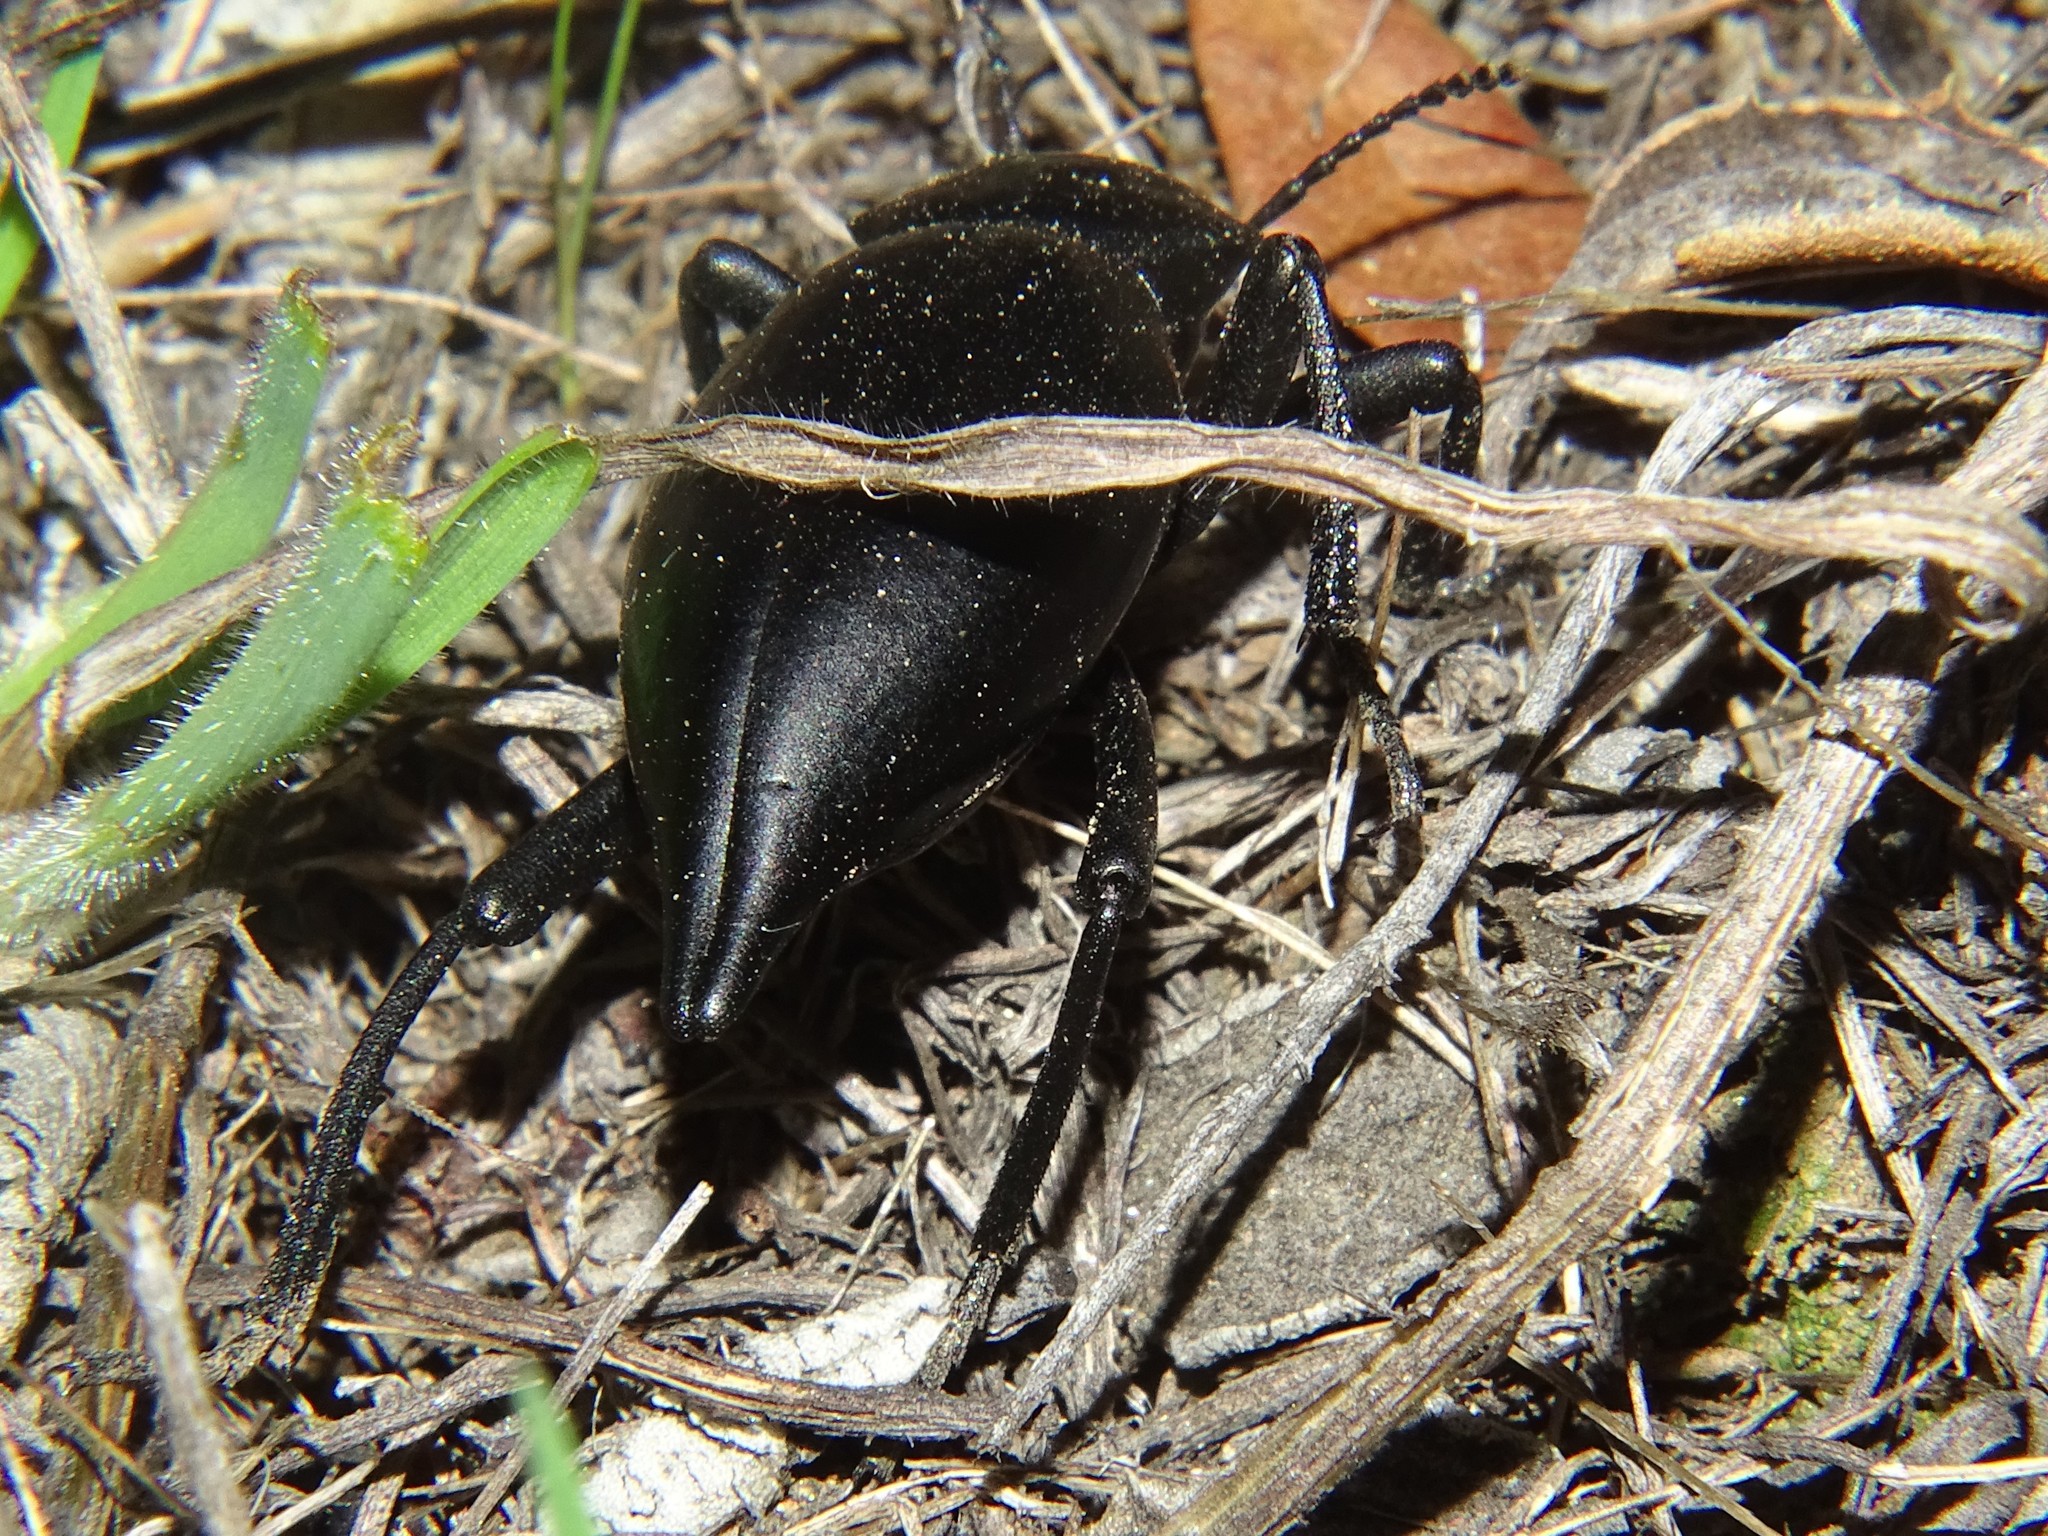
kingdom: Animalia
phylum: Arthropoda
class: Insecta
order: Coleoptera
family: Tenebrionidae
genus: Eleodes
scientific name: Eleodes acuticauda
